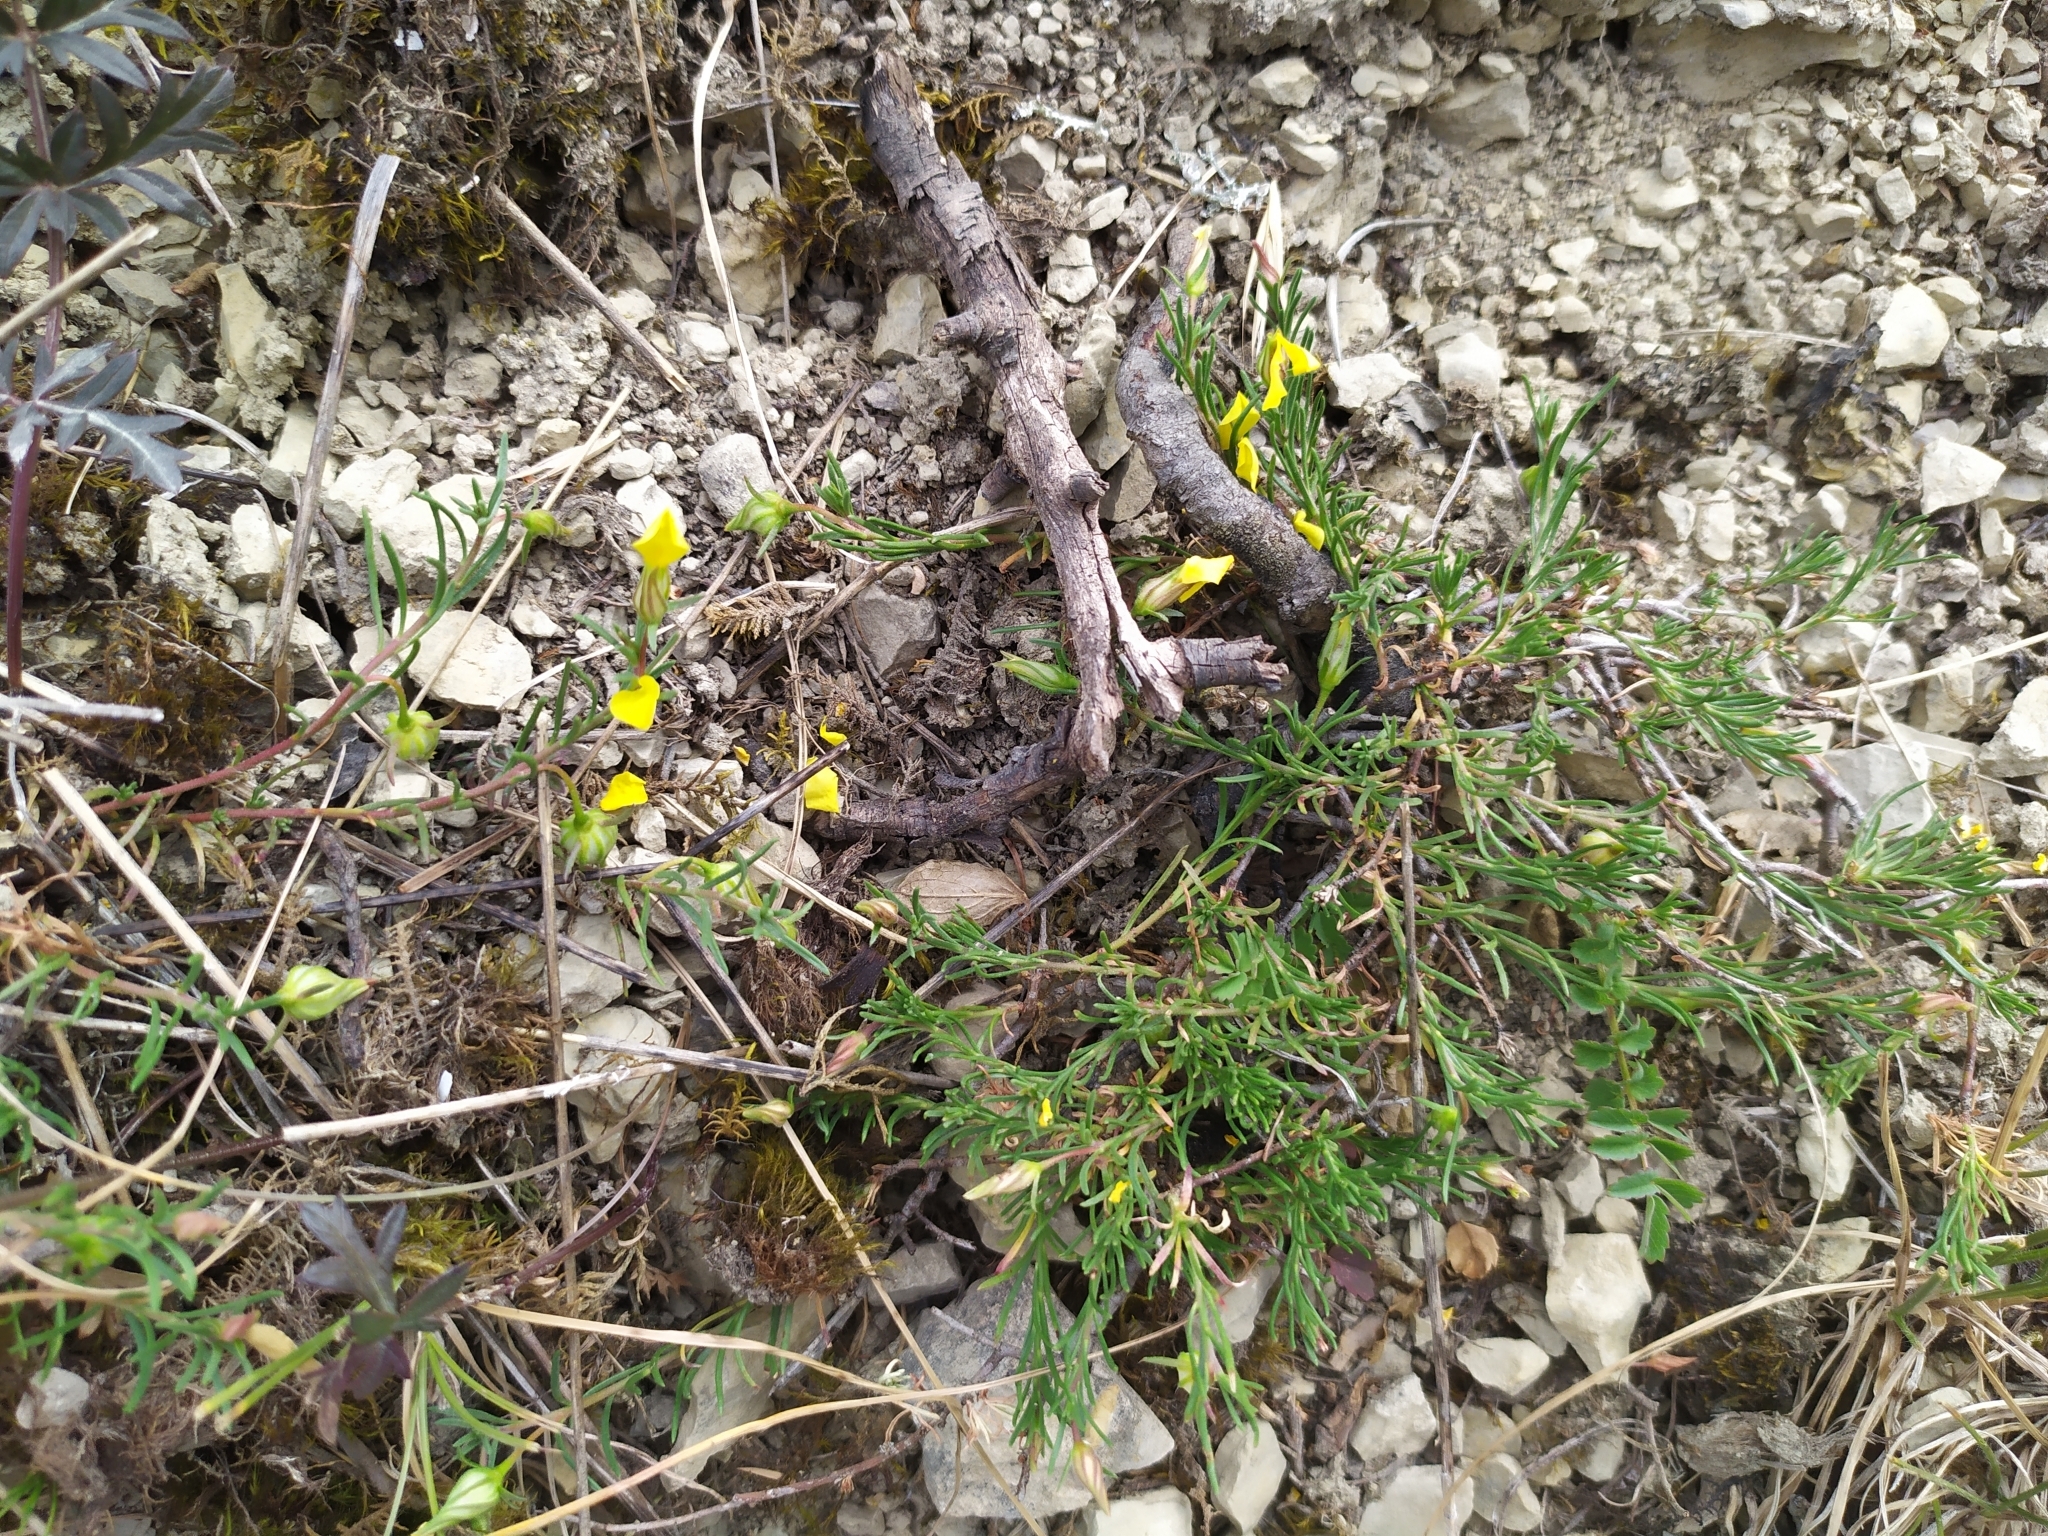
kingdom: Plantae
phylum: Tracheophyta
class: Magnoliopsida
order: Malvales
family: Cistaceae
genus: Fumana
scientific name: Fumana procumbens
